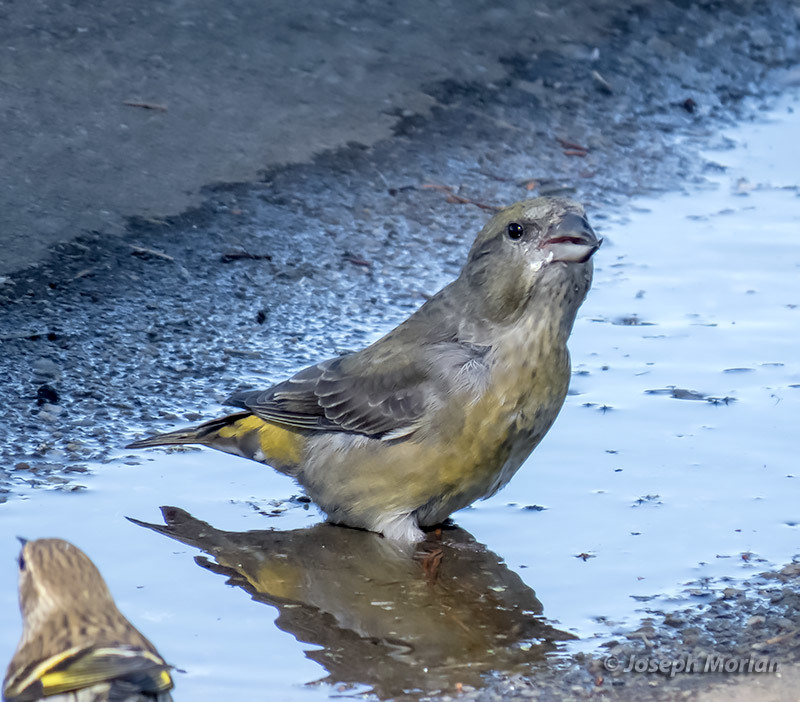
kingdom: Animalia
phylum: Chordata
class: Aves
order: Passeriformes
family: Fringillidae
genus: Loxia
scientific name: Loxia curvirostra
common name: Red crossbill
